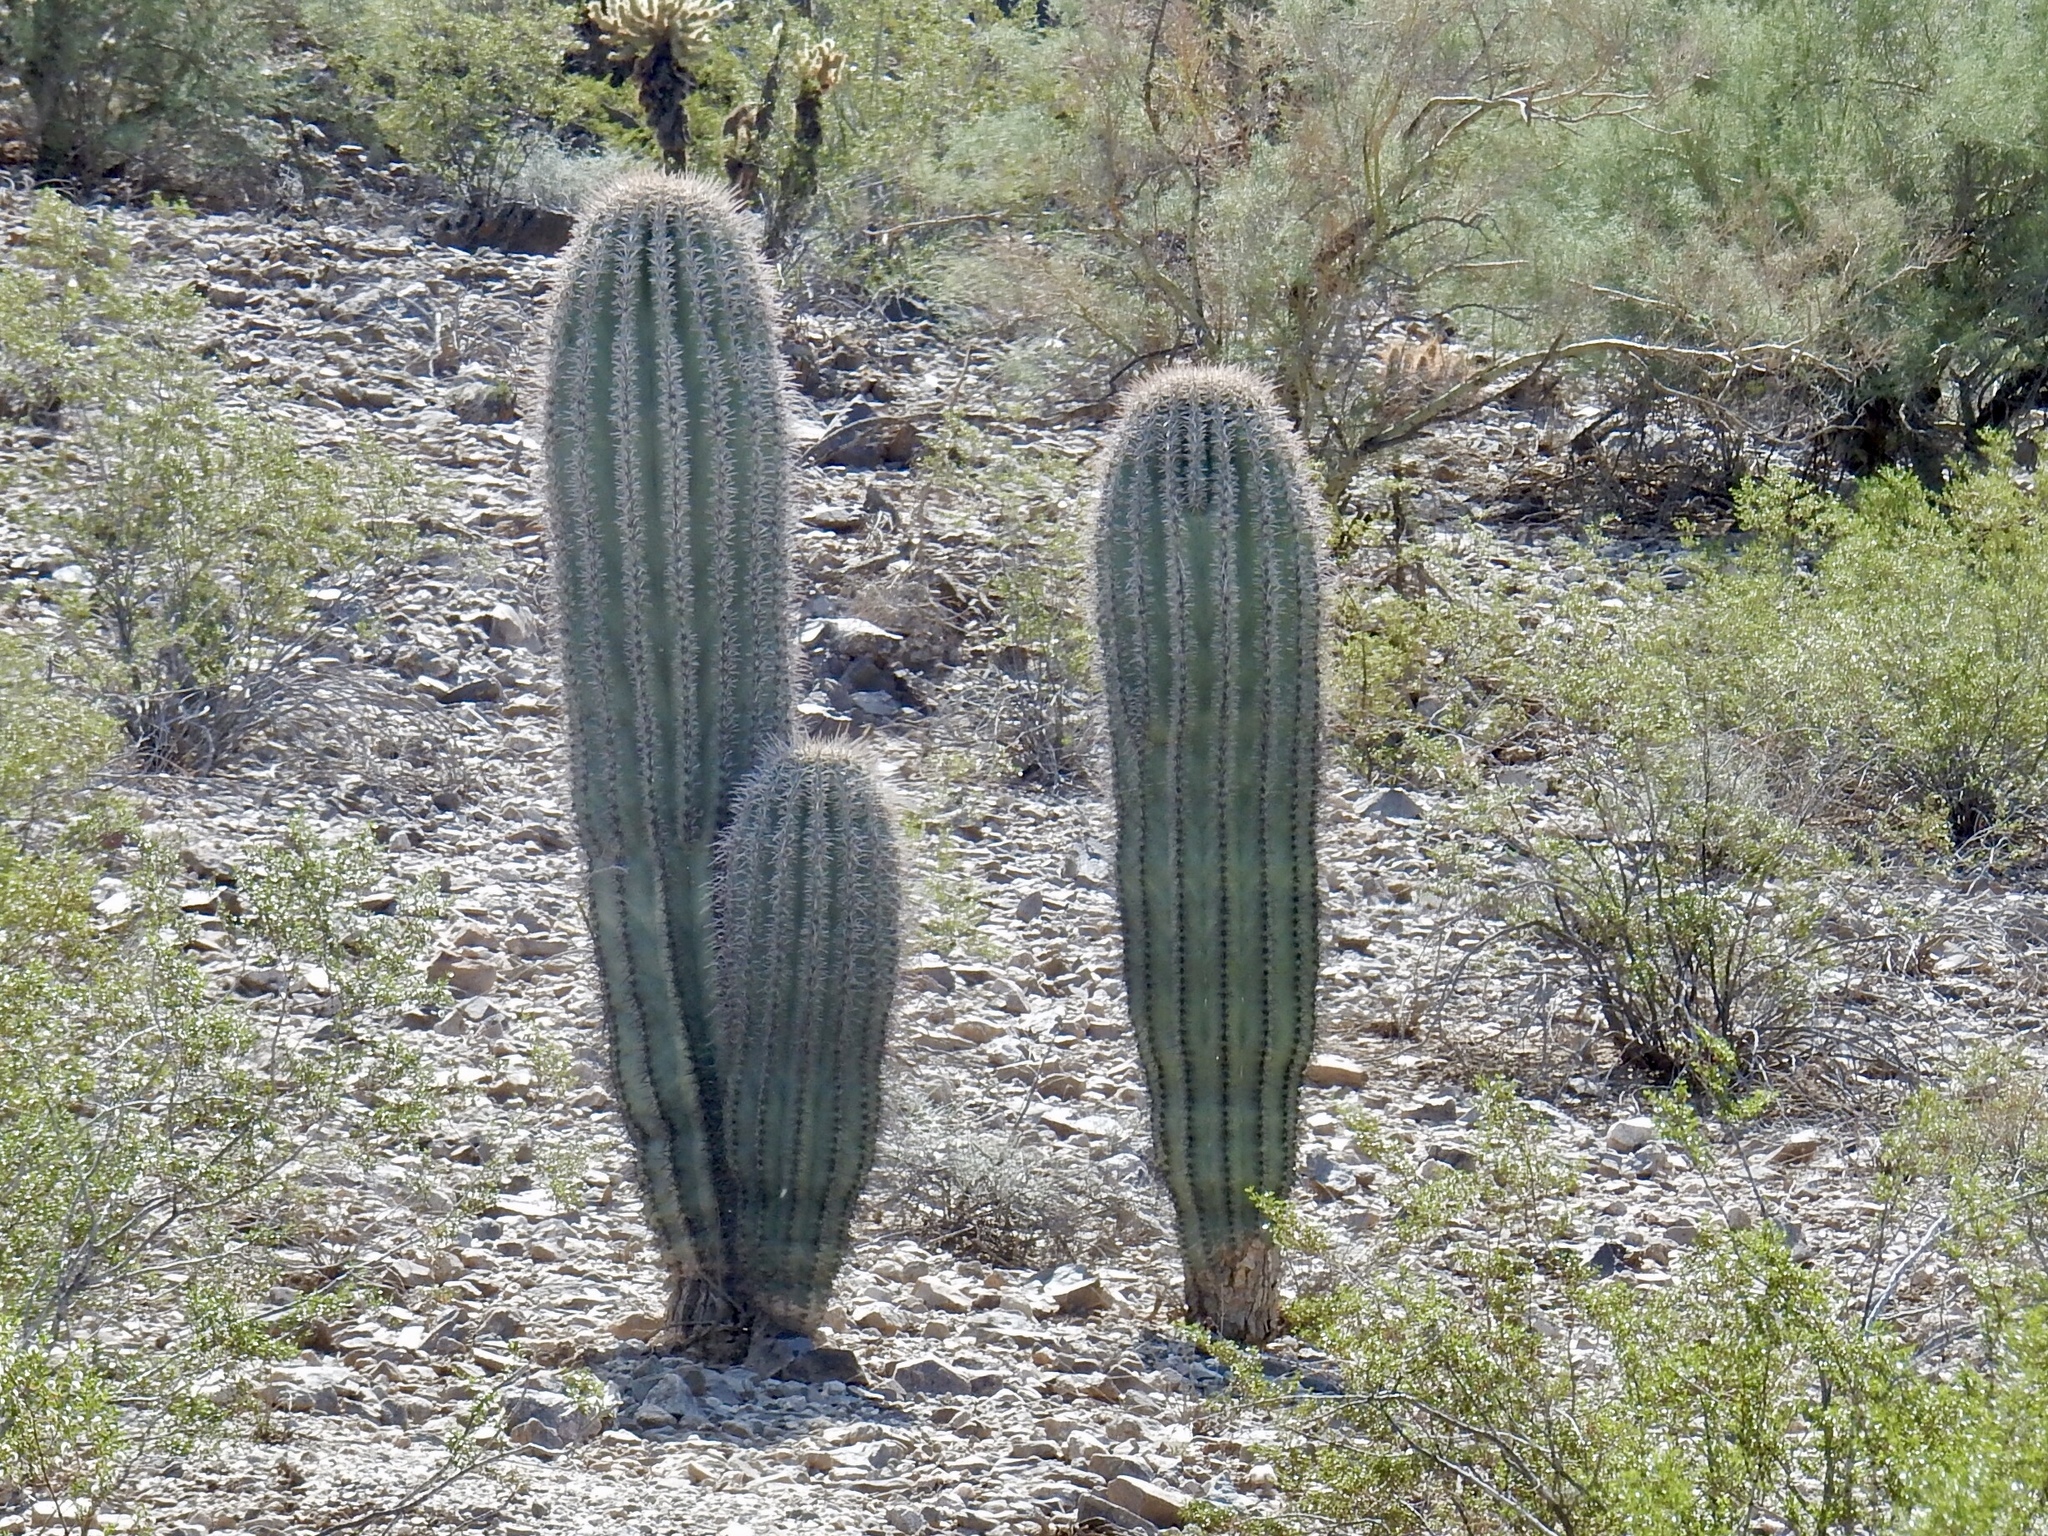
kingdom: Plantae
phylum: Tracheophyta
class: Magnoliopsida
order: Caryophyllales
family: Cactaceae
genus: Carnegiea
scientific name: Carnegiea gigantea
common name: Saguaro
